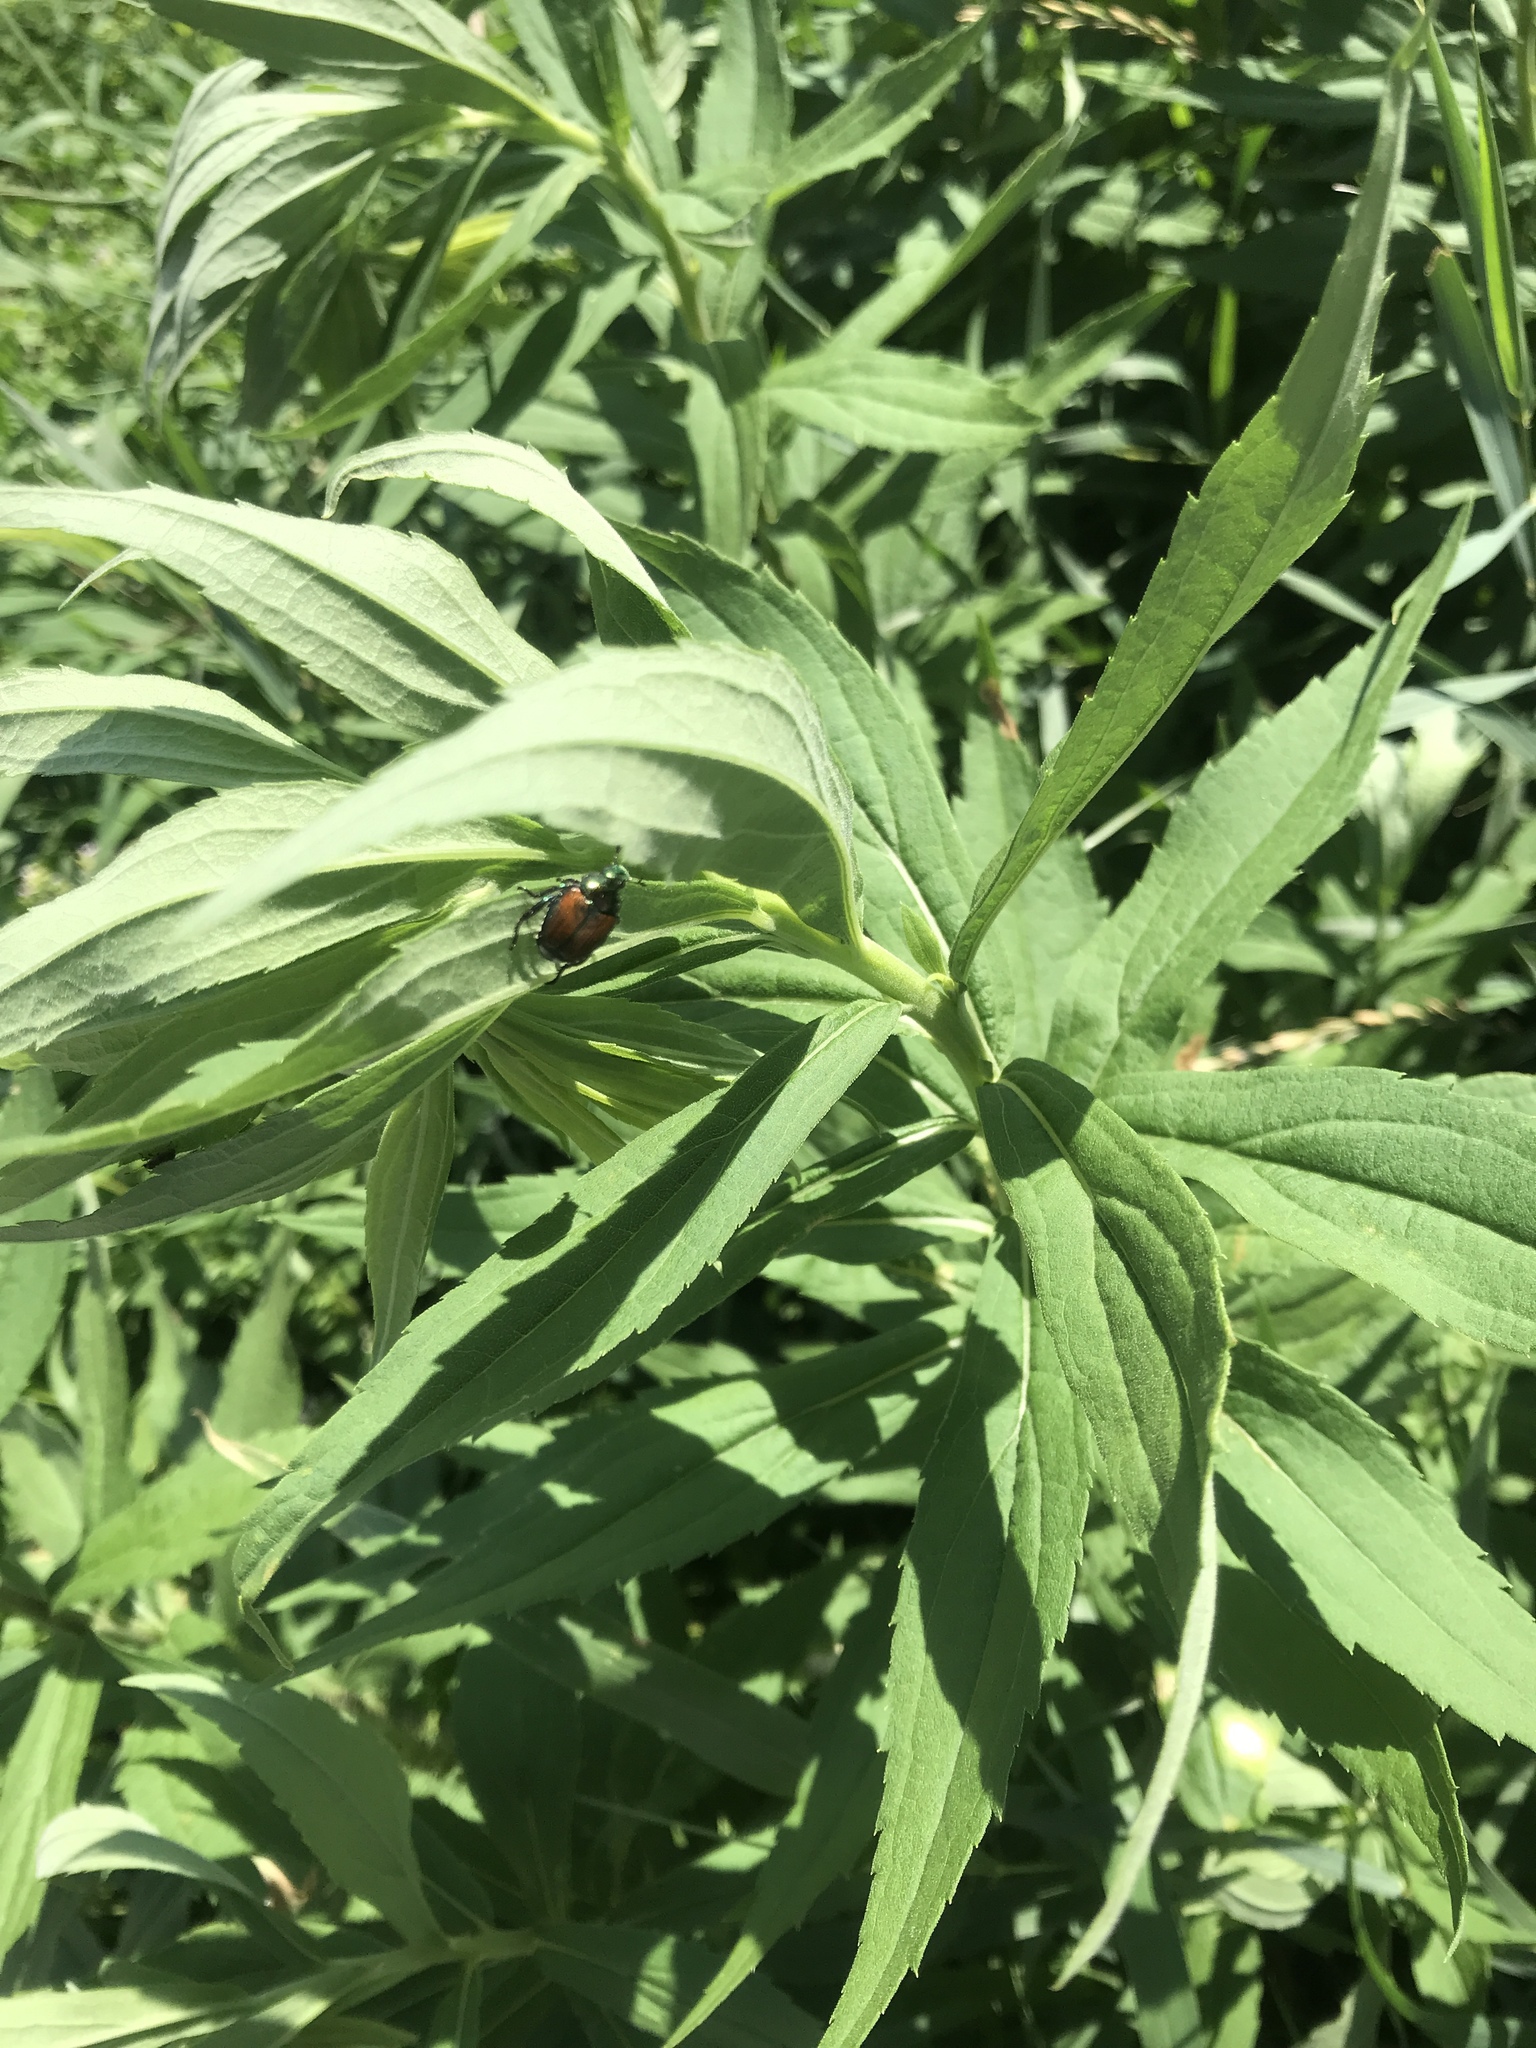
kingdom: Animalia
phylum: Arthropoda
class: Insecta
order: Coleoptera
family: Scarabaeidae
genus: Popillia
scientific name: Popillia japonica
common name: Japanese beetle
